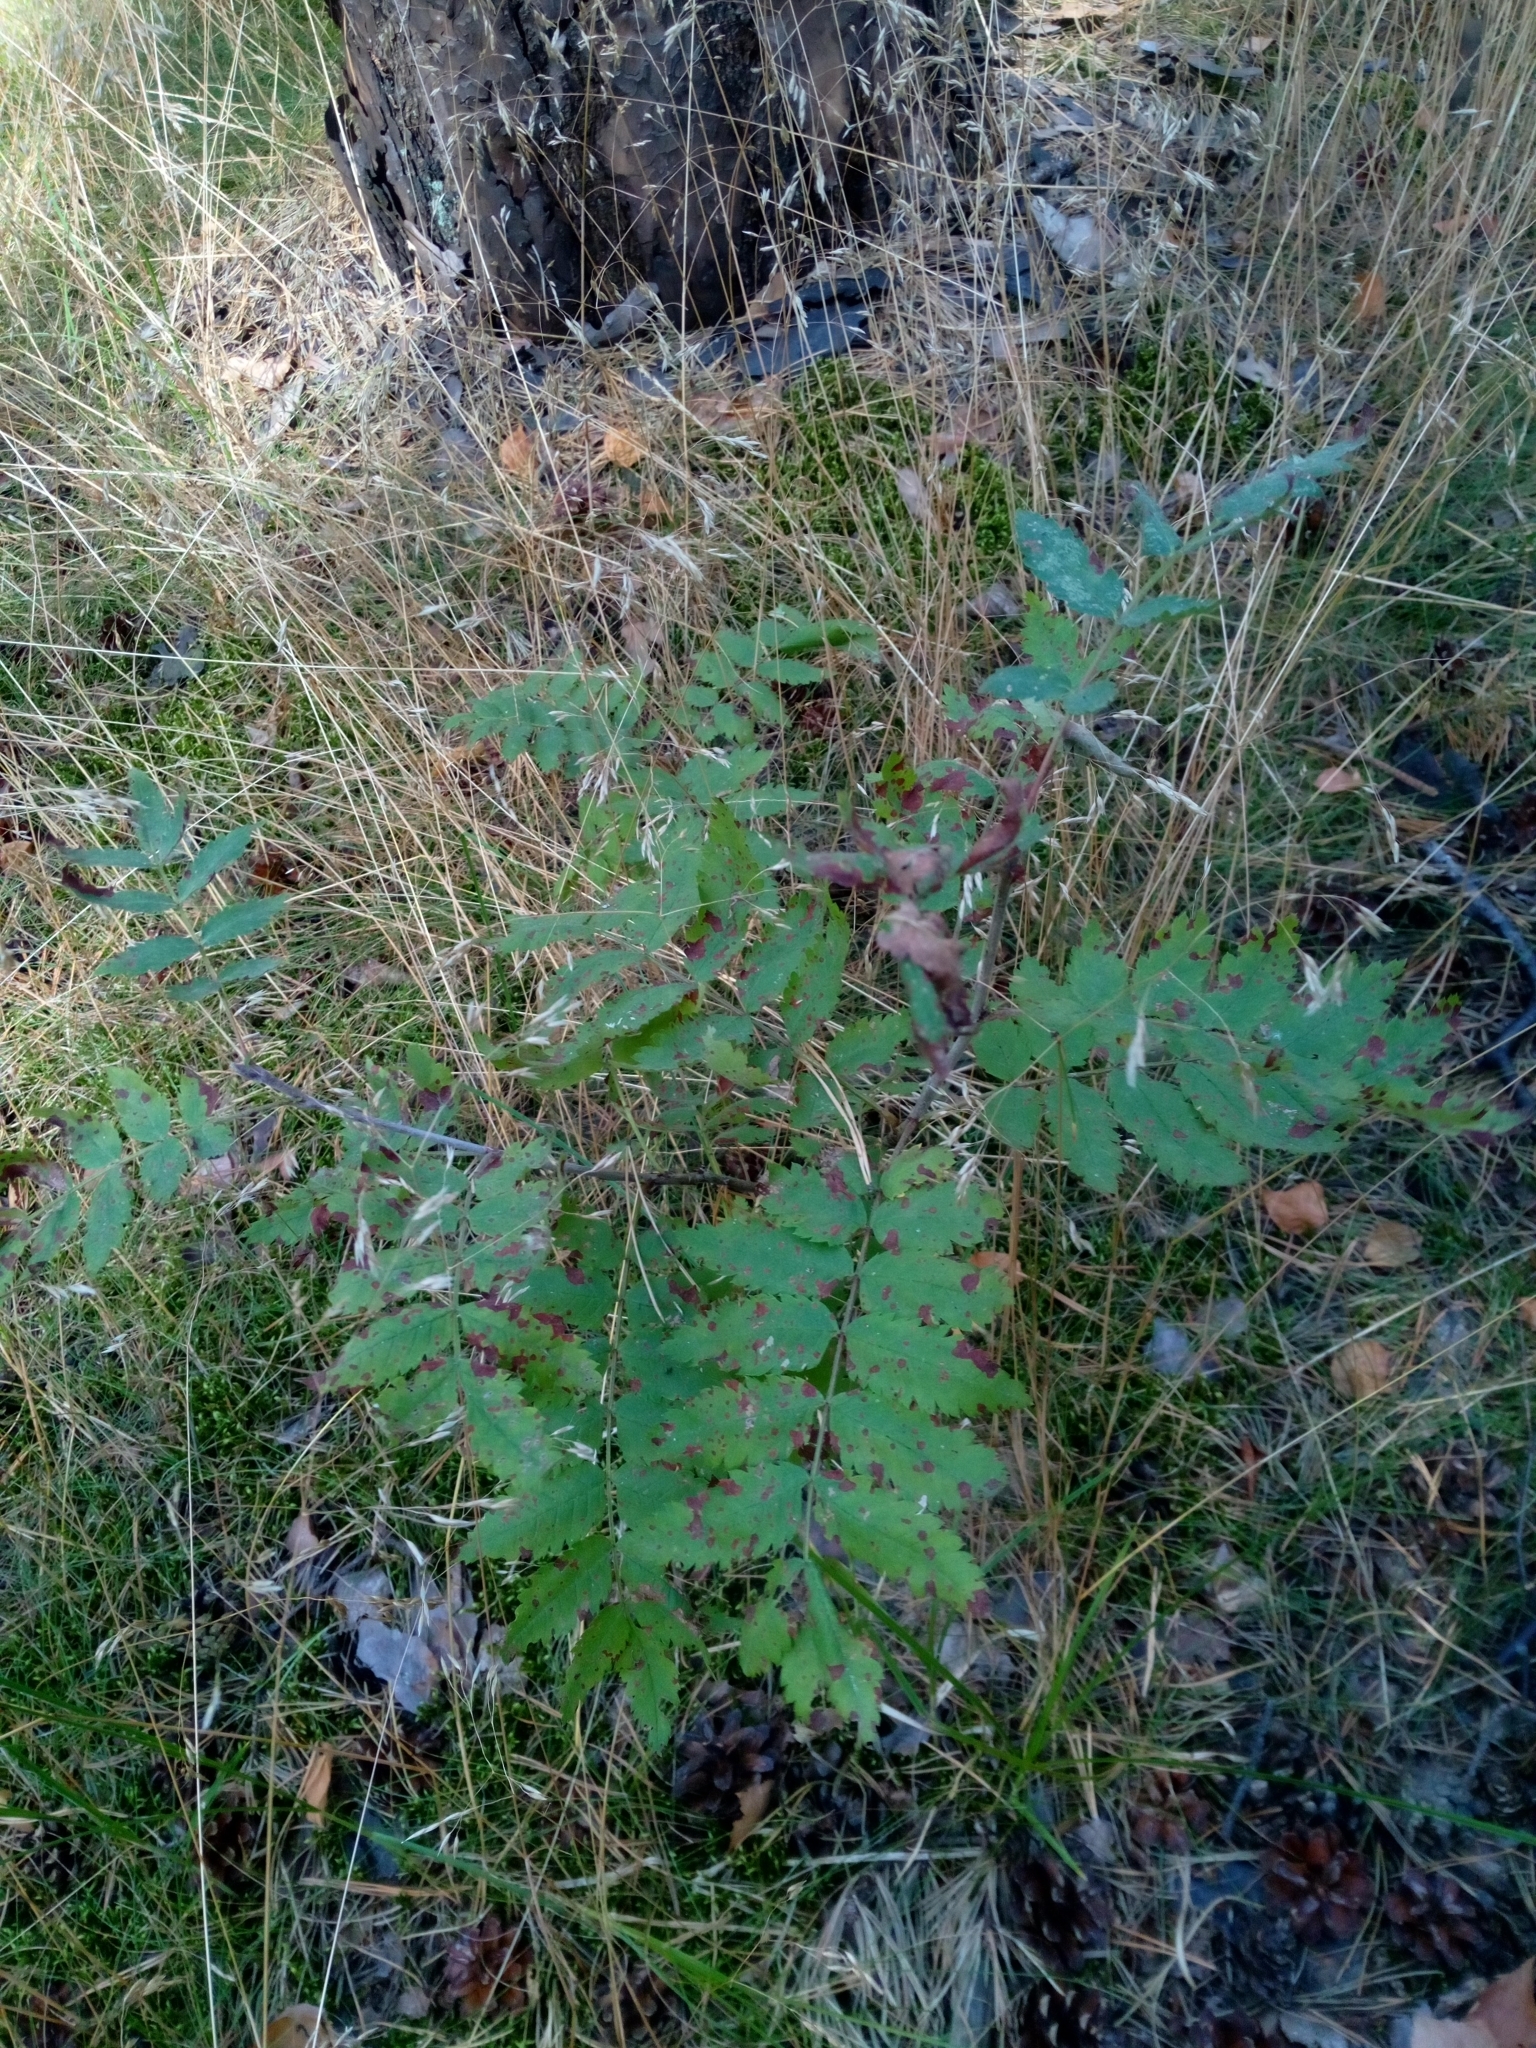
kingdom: Plantae
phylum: Tracheophyta
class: Magnoliopsida
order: Rosales
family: Rosaceae
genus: Sorbus
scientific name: Sorbus aucuparia
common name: Rowan
